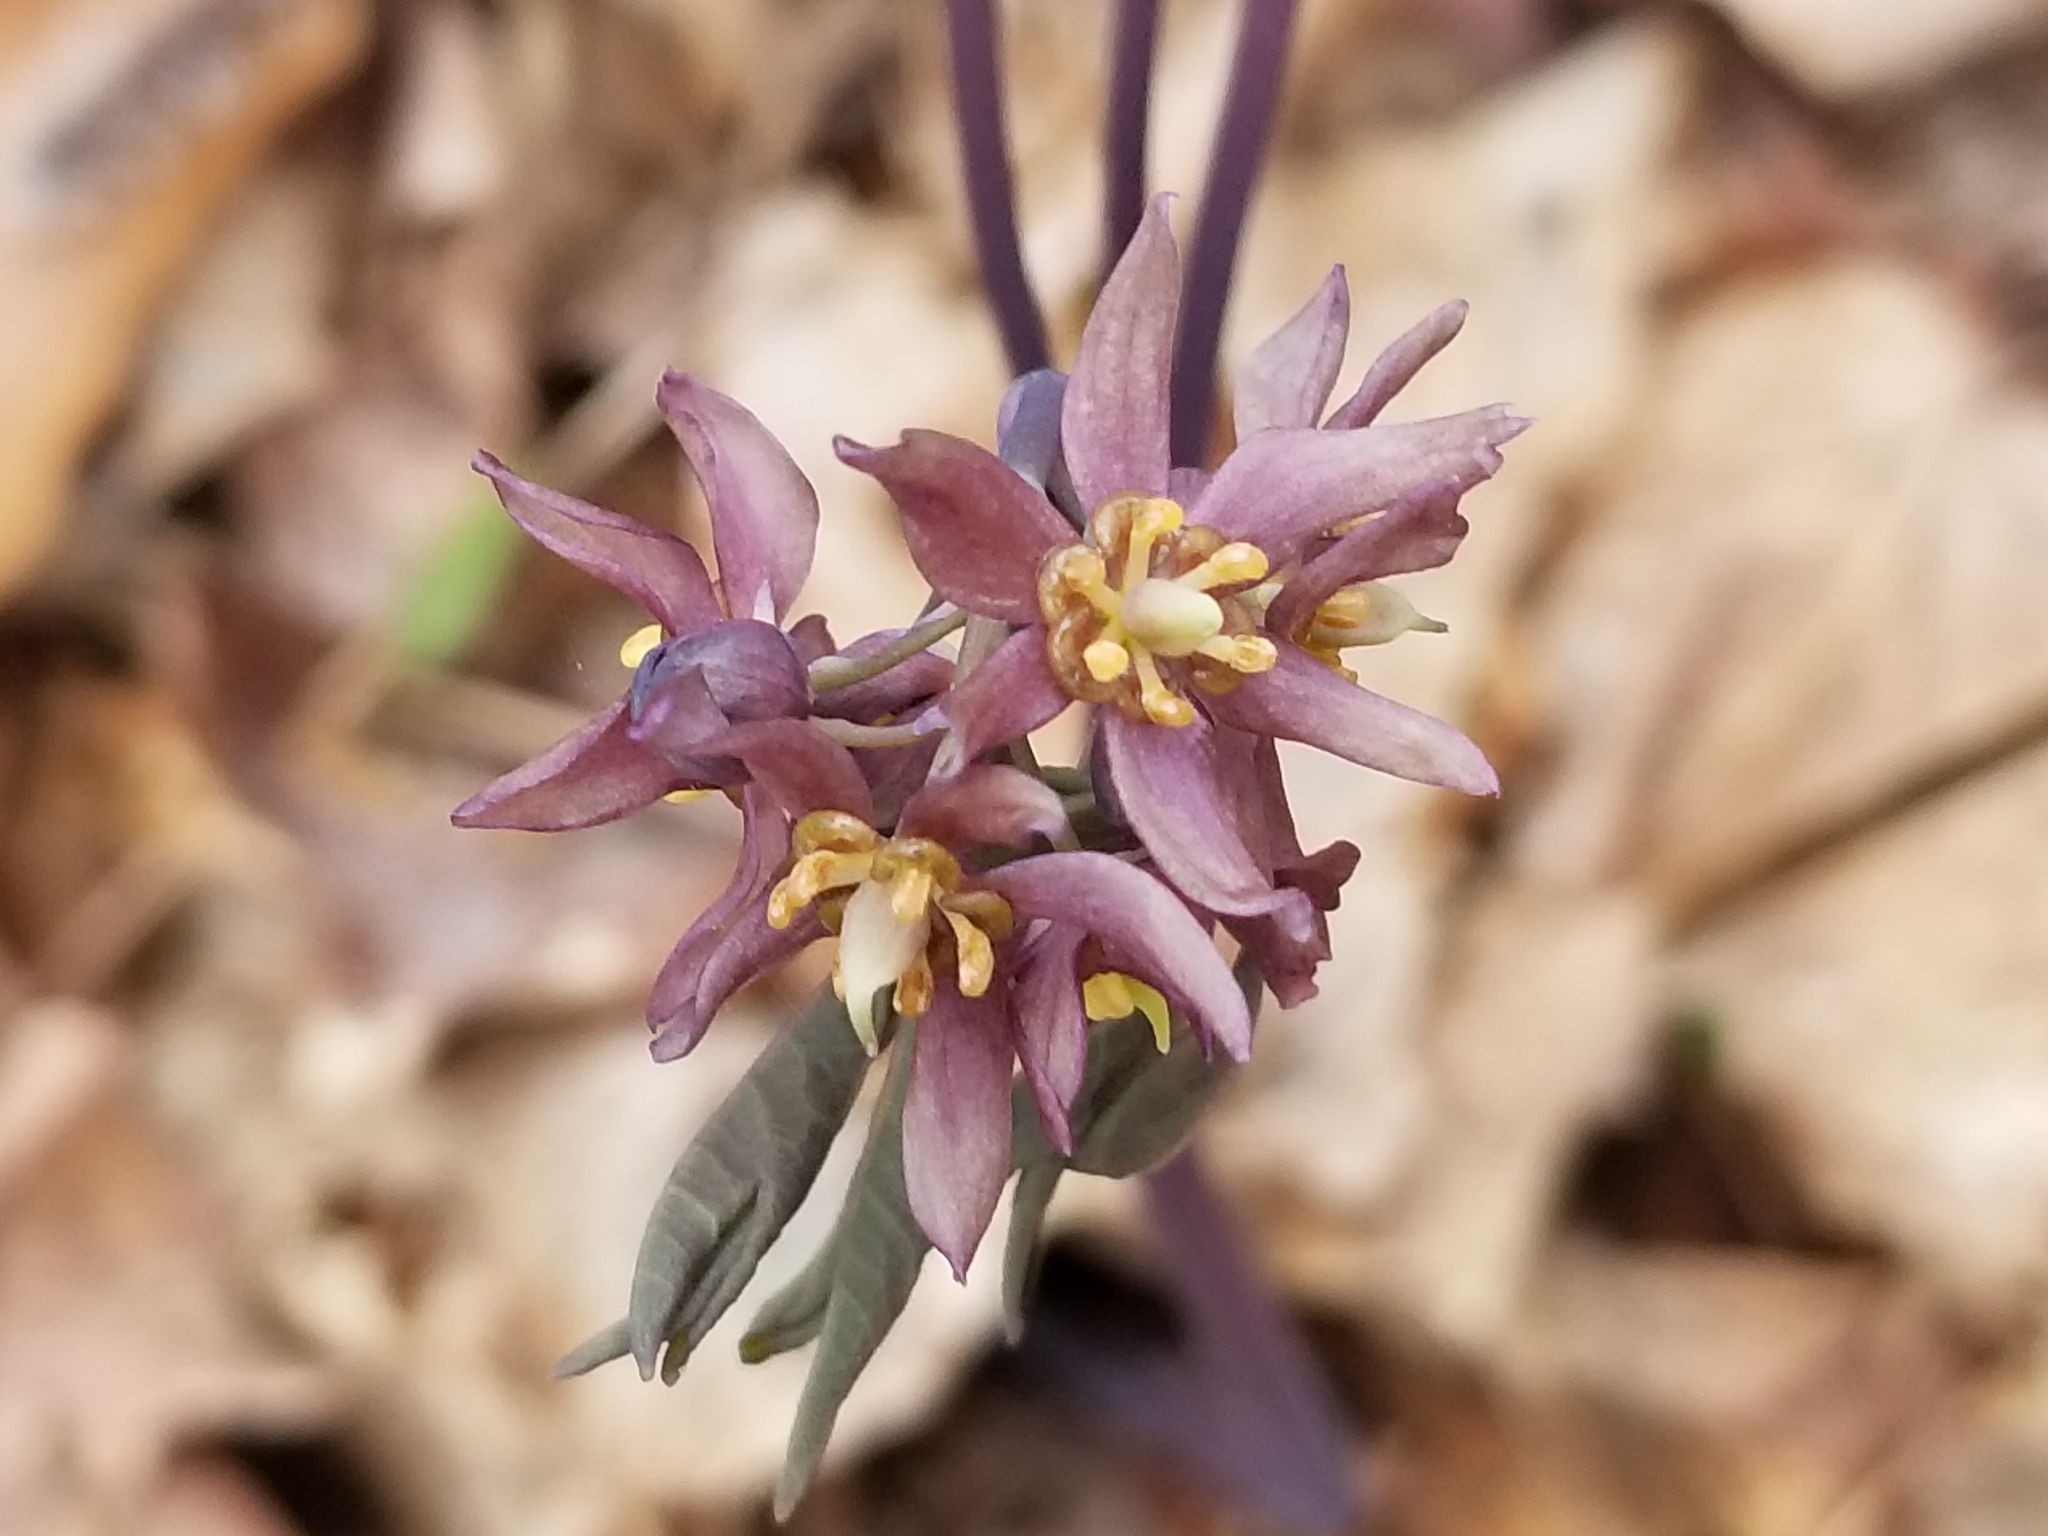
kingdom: Plantae
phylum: Tracheophyta
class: Magnoliopsida
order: Ranunculales
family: Berberidaceae
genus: Caulophyllum
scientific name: Caulophyllum giganteum
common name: Blue cohosh
